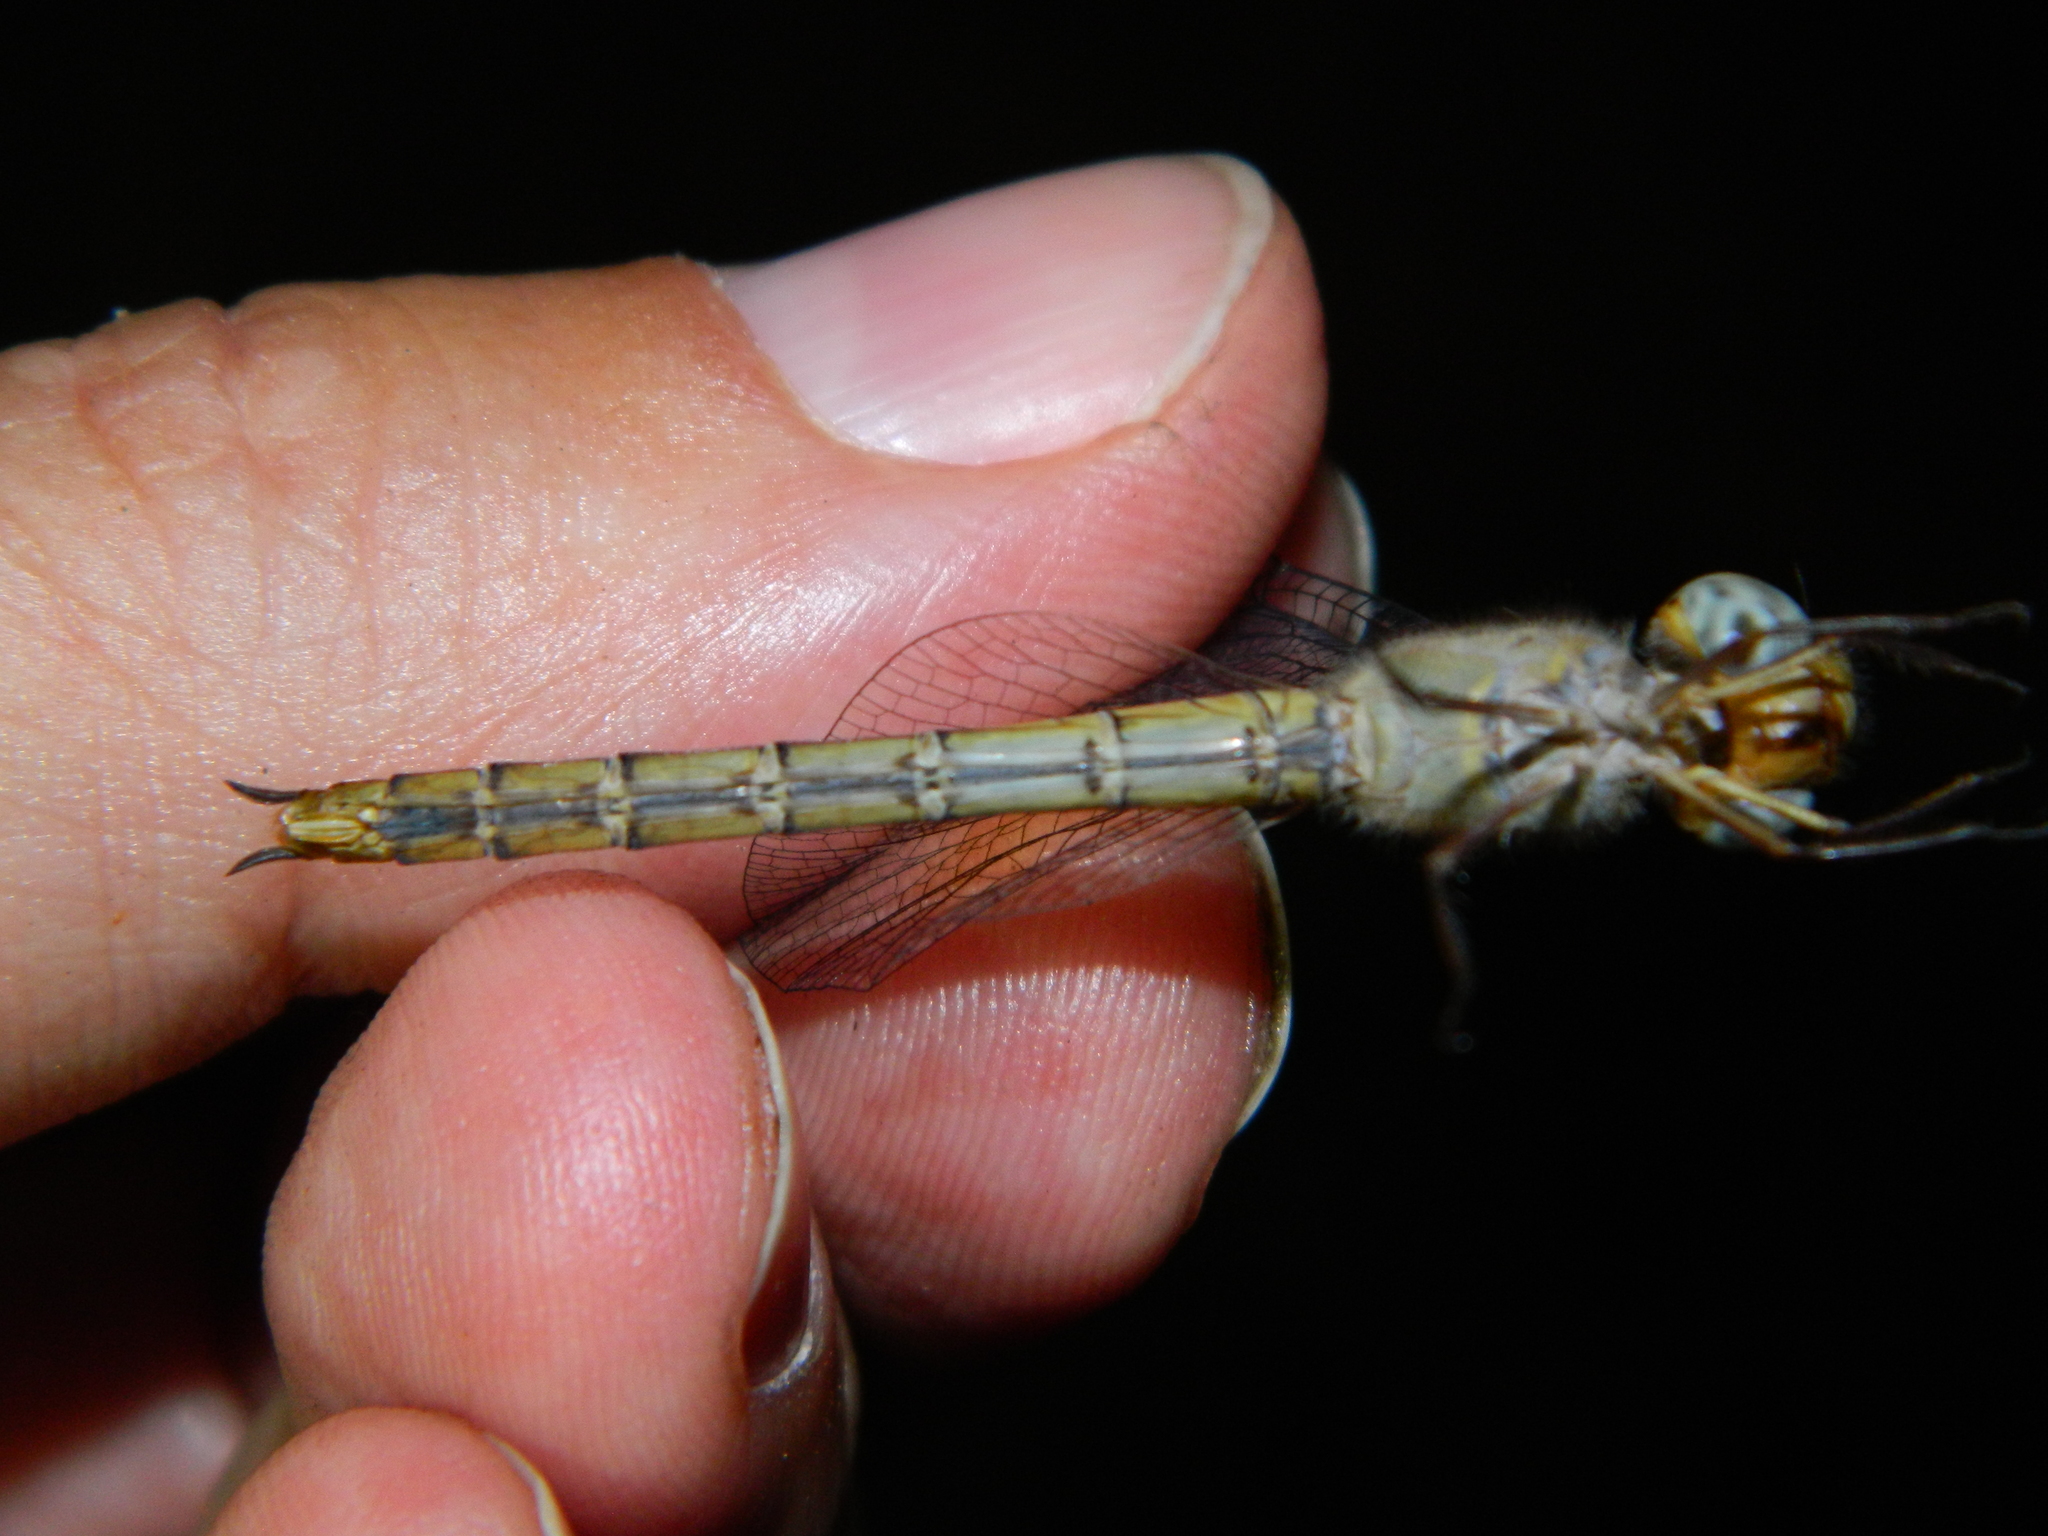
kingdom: Animalia
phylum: Arthropoda
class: Insecta
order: Odonata
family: Libellulidae
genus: Tholymis
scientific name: Tholymis tillarga
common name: Coral-tailed cloud wing
